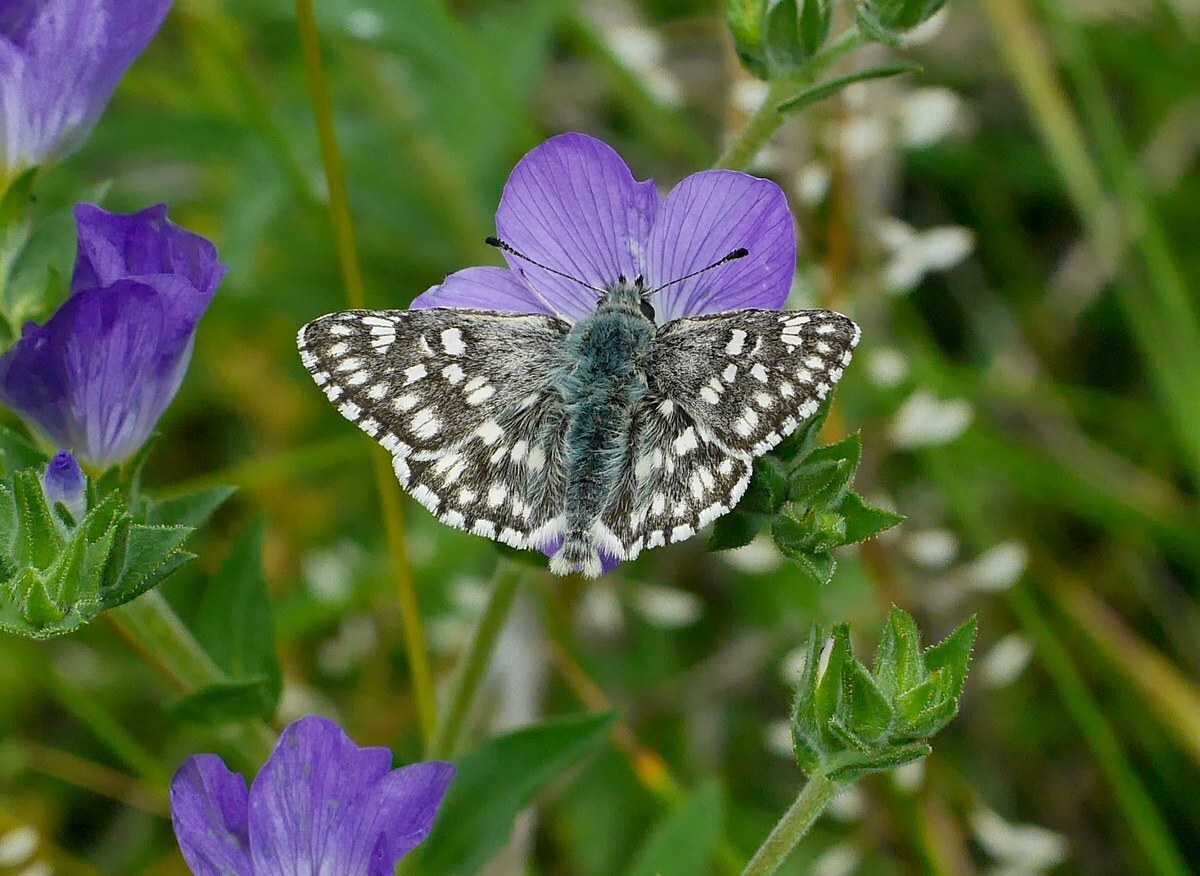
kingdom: Animalia
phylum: Arthropoda
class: Insecta
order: Lepidoptera
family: Hesperiidae
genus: Syrichtus
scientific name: Syrichtus tessellum
